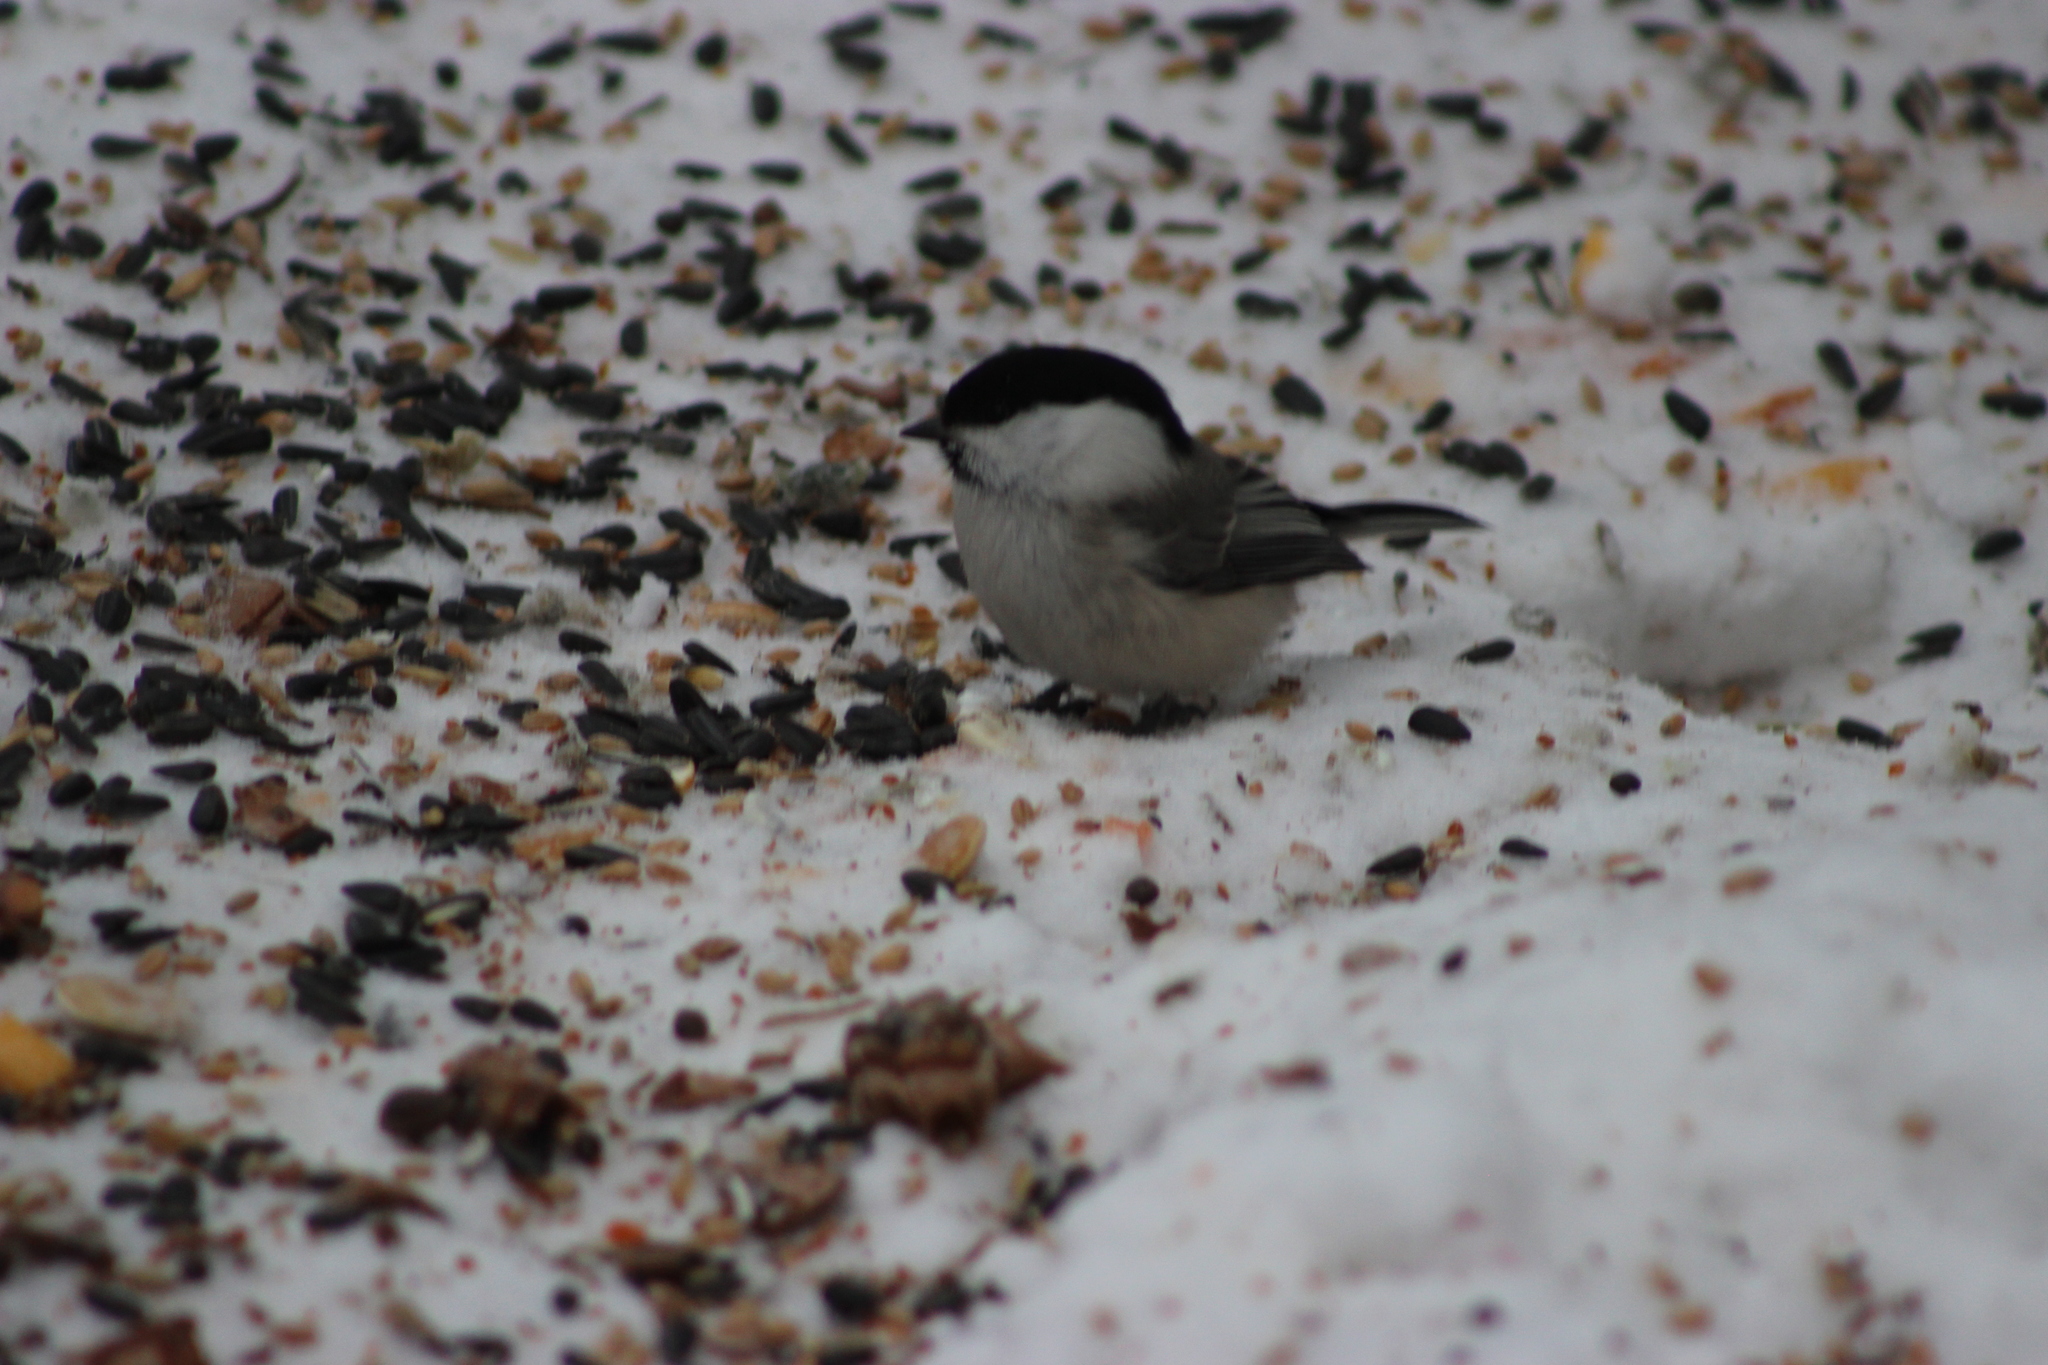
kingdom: Animalia
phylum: Chordata
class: Aves
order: Passeriformes
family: Paridae
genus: Poecile
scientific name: Poecile montanus
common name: Willow tit
